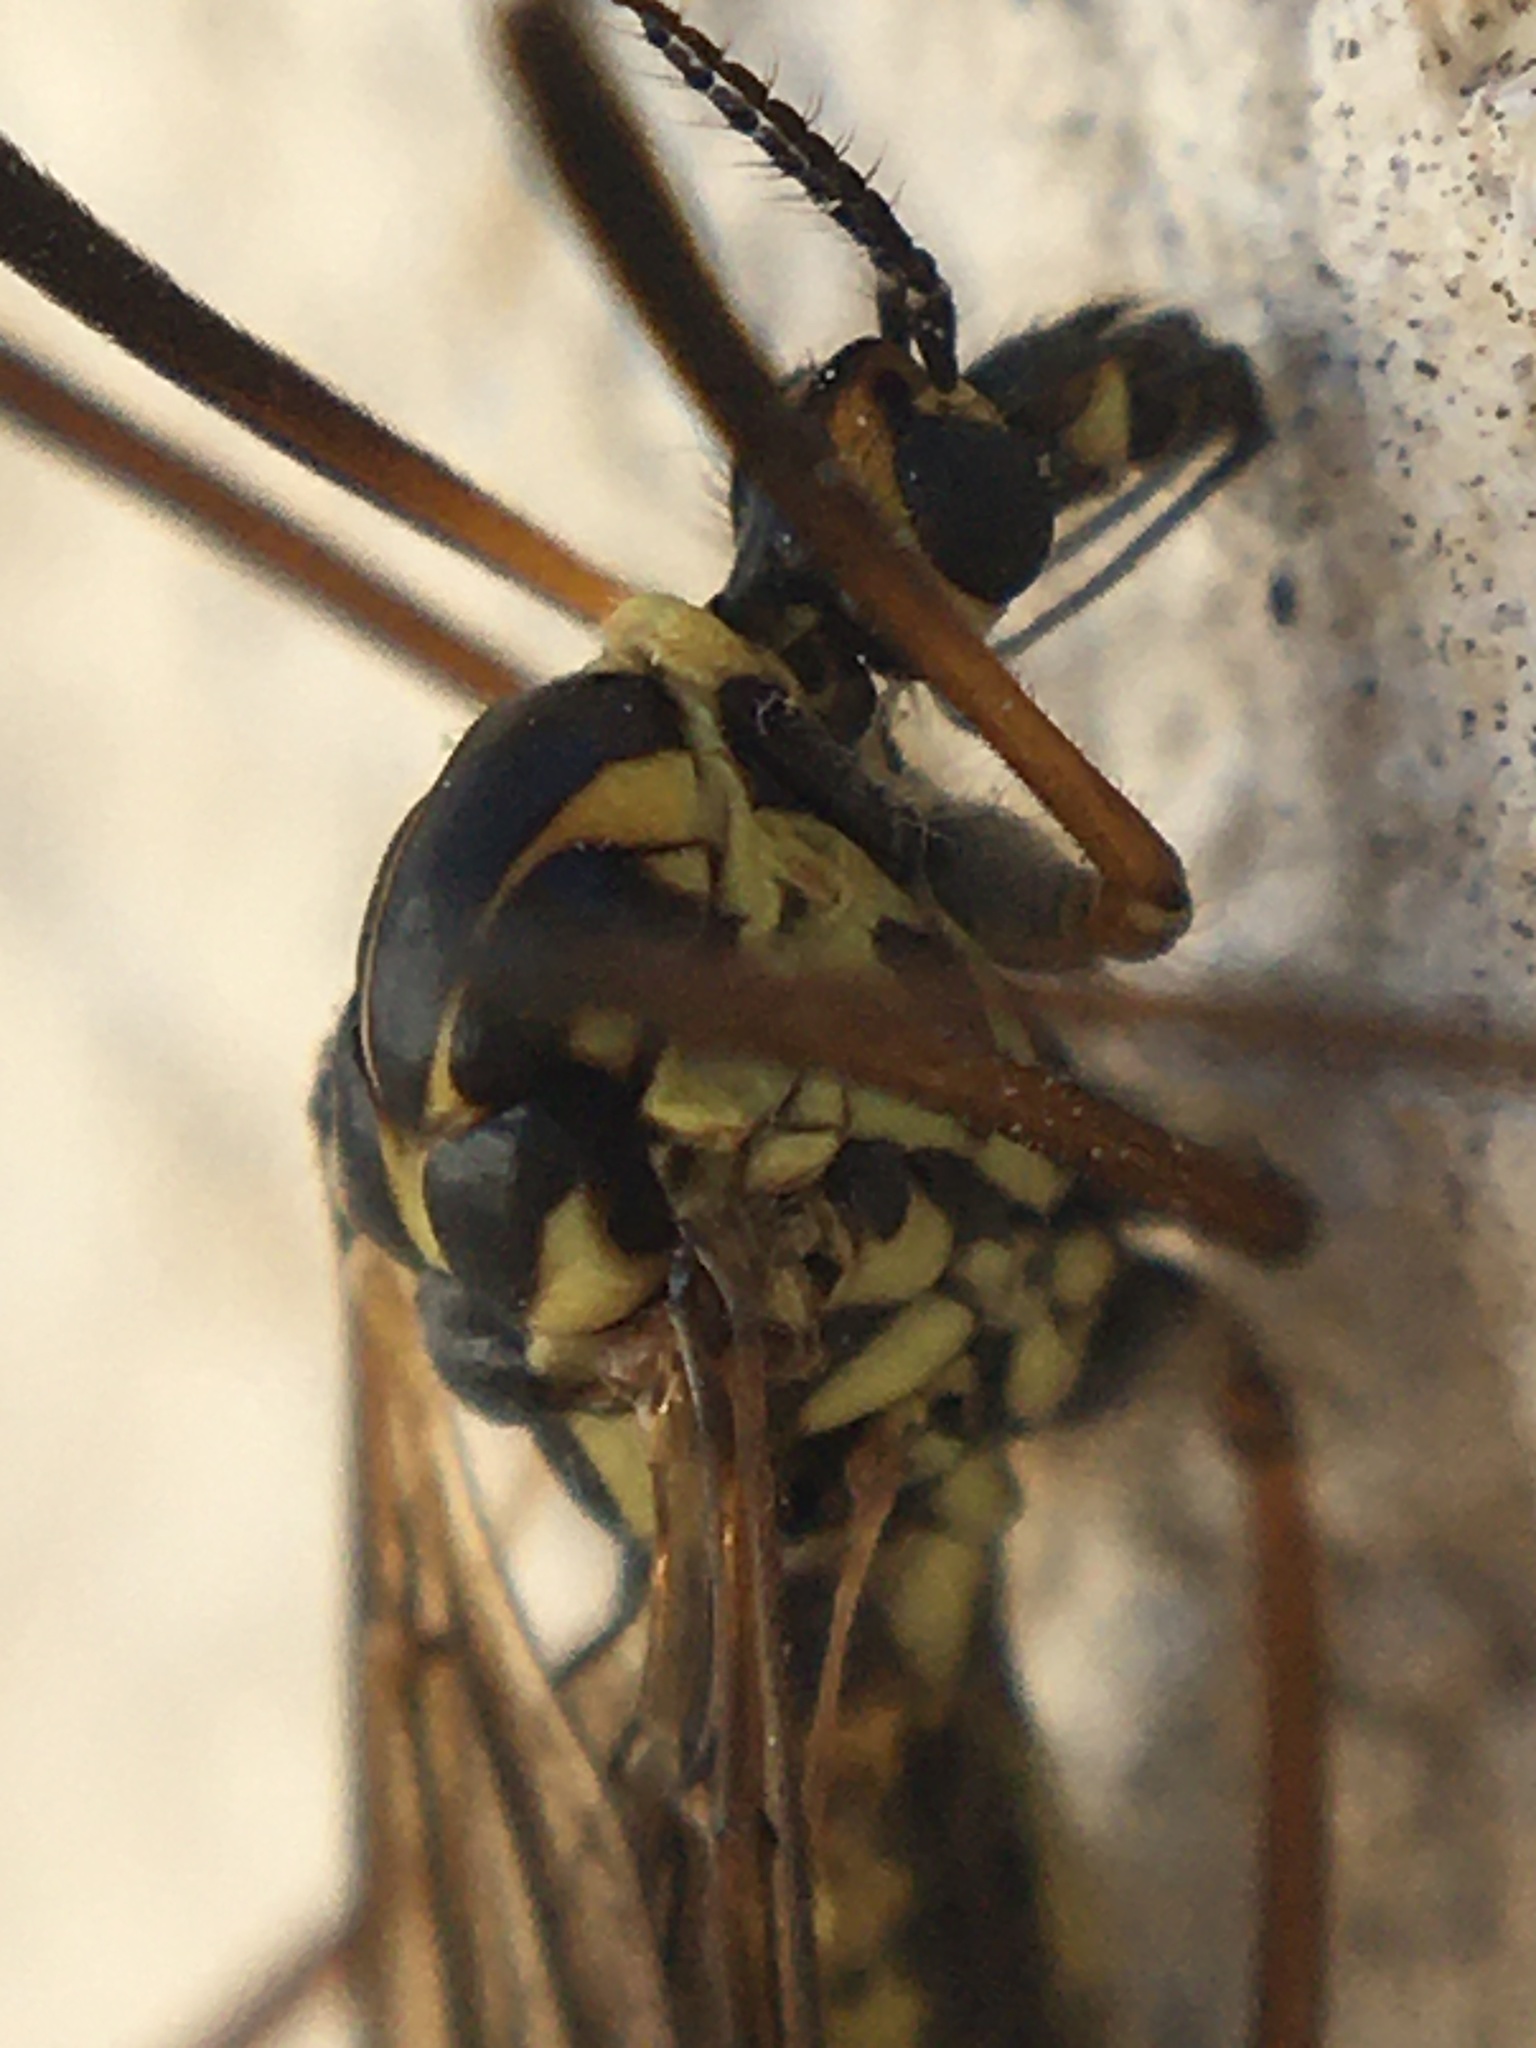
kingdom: Animalia
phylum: Arthropoda
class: Insecta
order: Diptera
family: Tipulidae
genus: Nephrotoma
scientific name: Nephrotoma appendiculata
